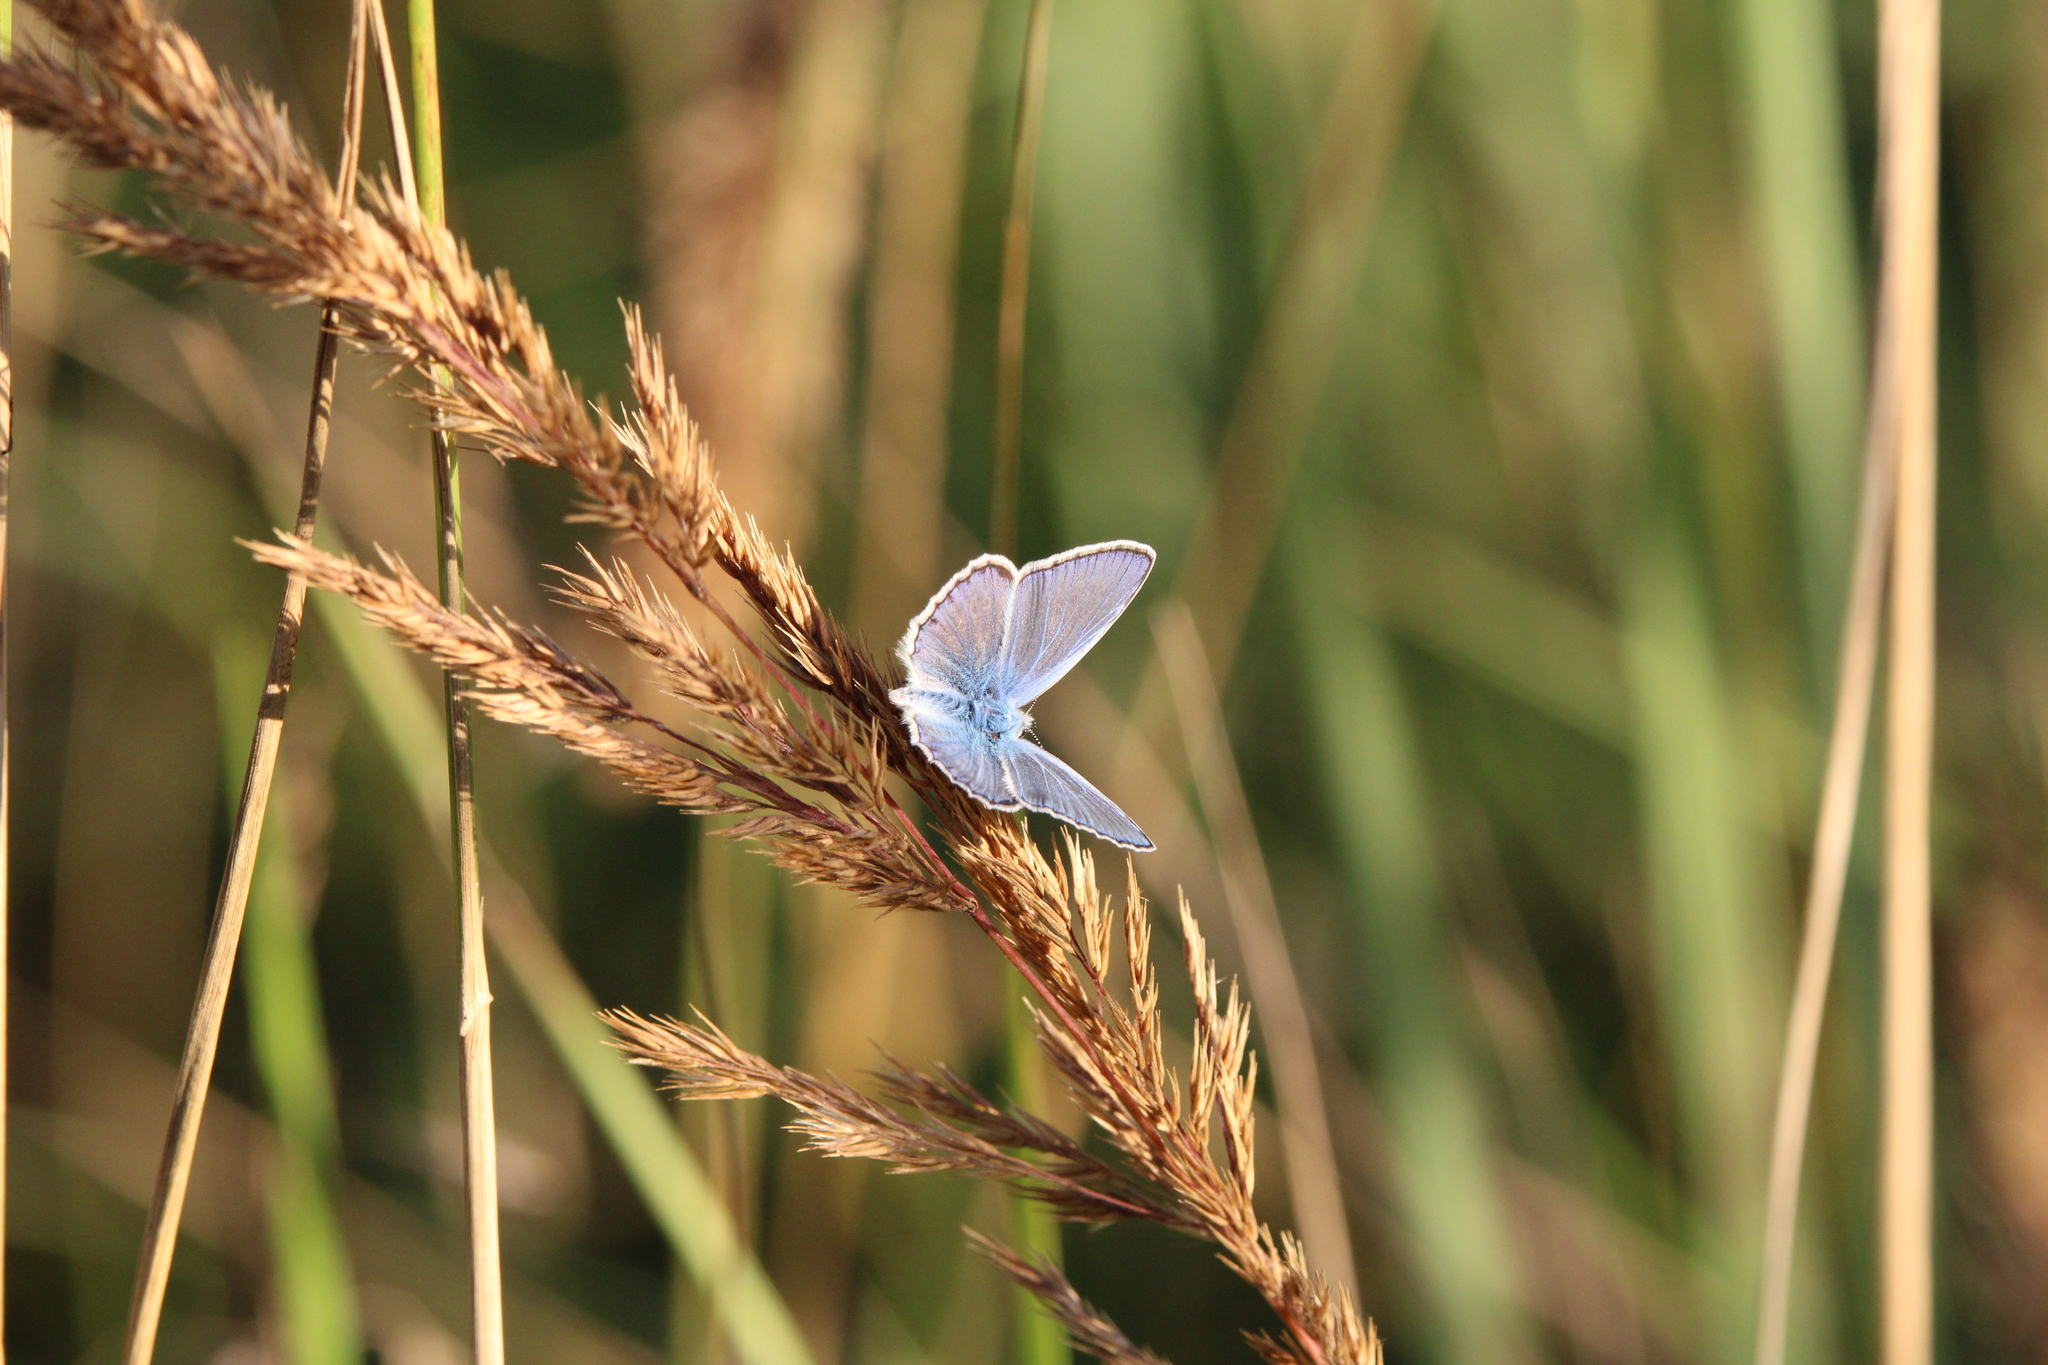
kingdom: Animalia
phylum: Arthropoda
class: Insecta
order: Lepidoptera
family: Lycaenidae
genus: Polyommatus
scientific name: Polyommatus icarus
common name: Common blue
